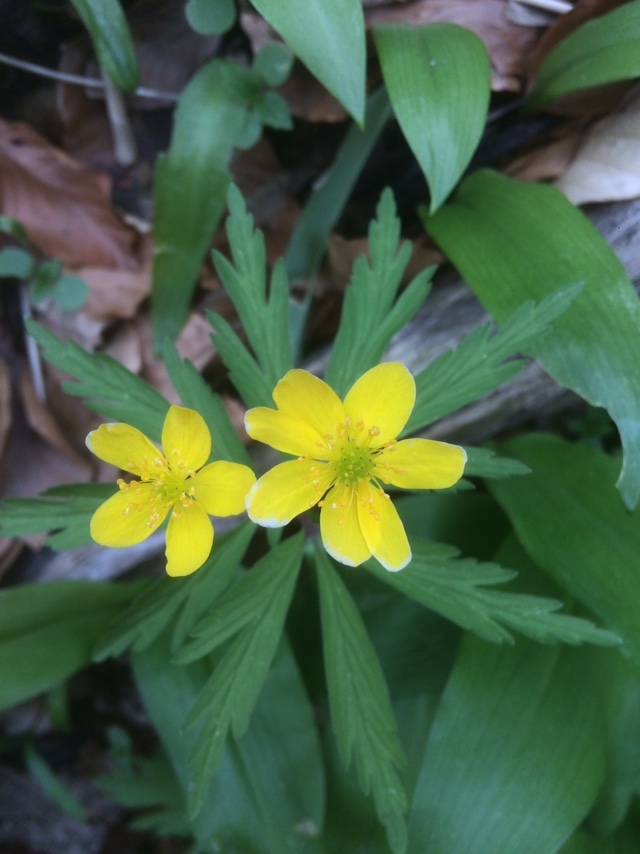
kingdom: Plantae
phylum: Tracheophyta
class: Magnoliopsida
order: Ranunculales
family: Ranunculaceae
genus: Anemone
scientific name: Anemone ranunculoides
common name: Yellow anemone
